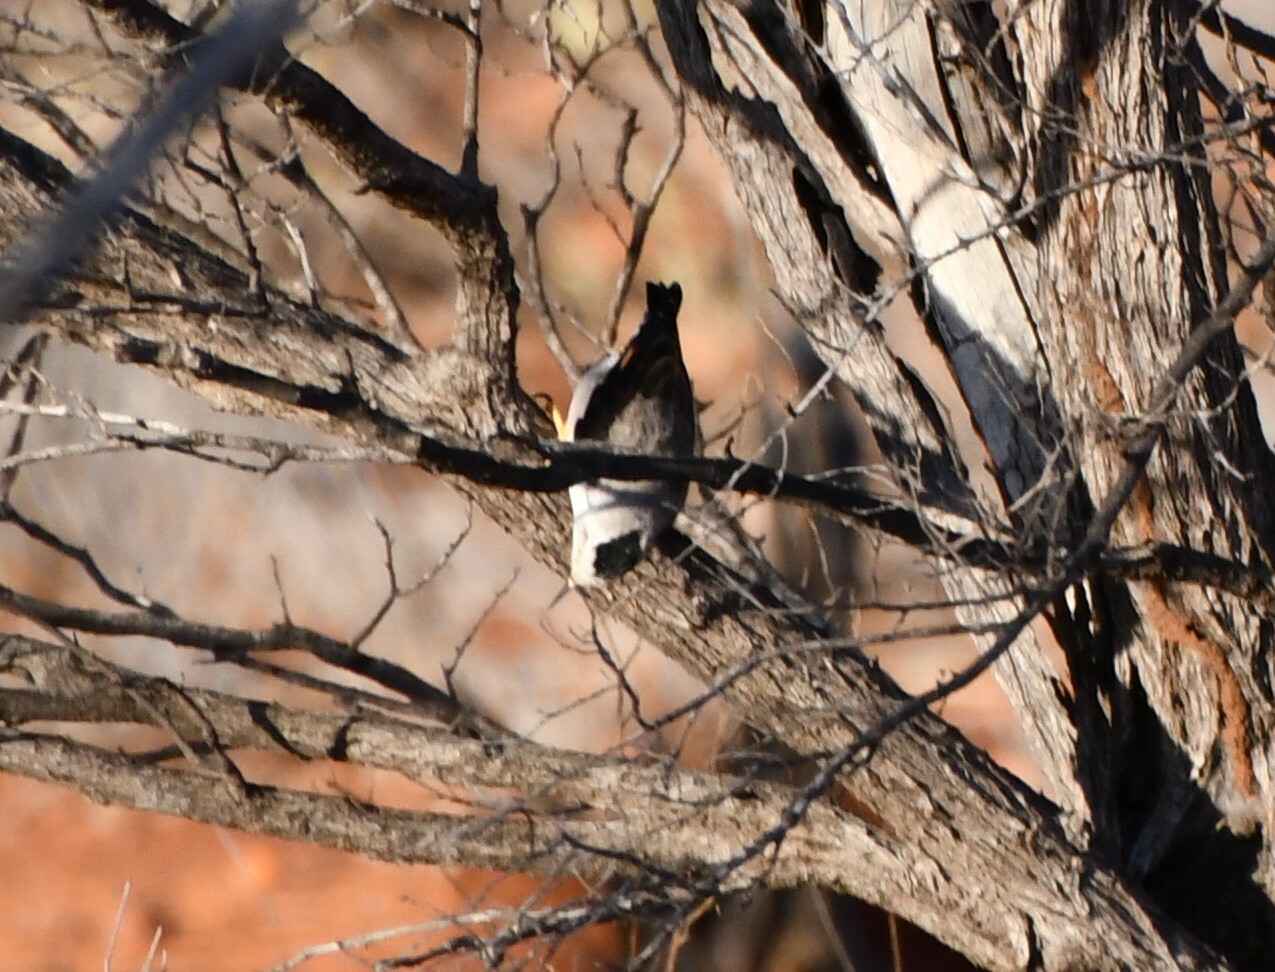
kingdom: Animalia
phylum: Chordata
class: Aves
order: Passeriformes
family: Neosittidae
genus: Daphoenositta
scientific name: Daphoenositta chrysoptera
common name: Varied sittella
